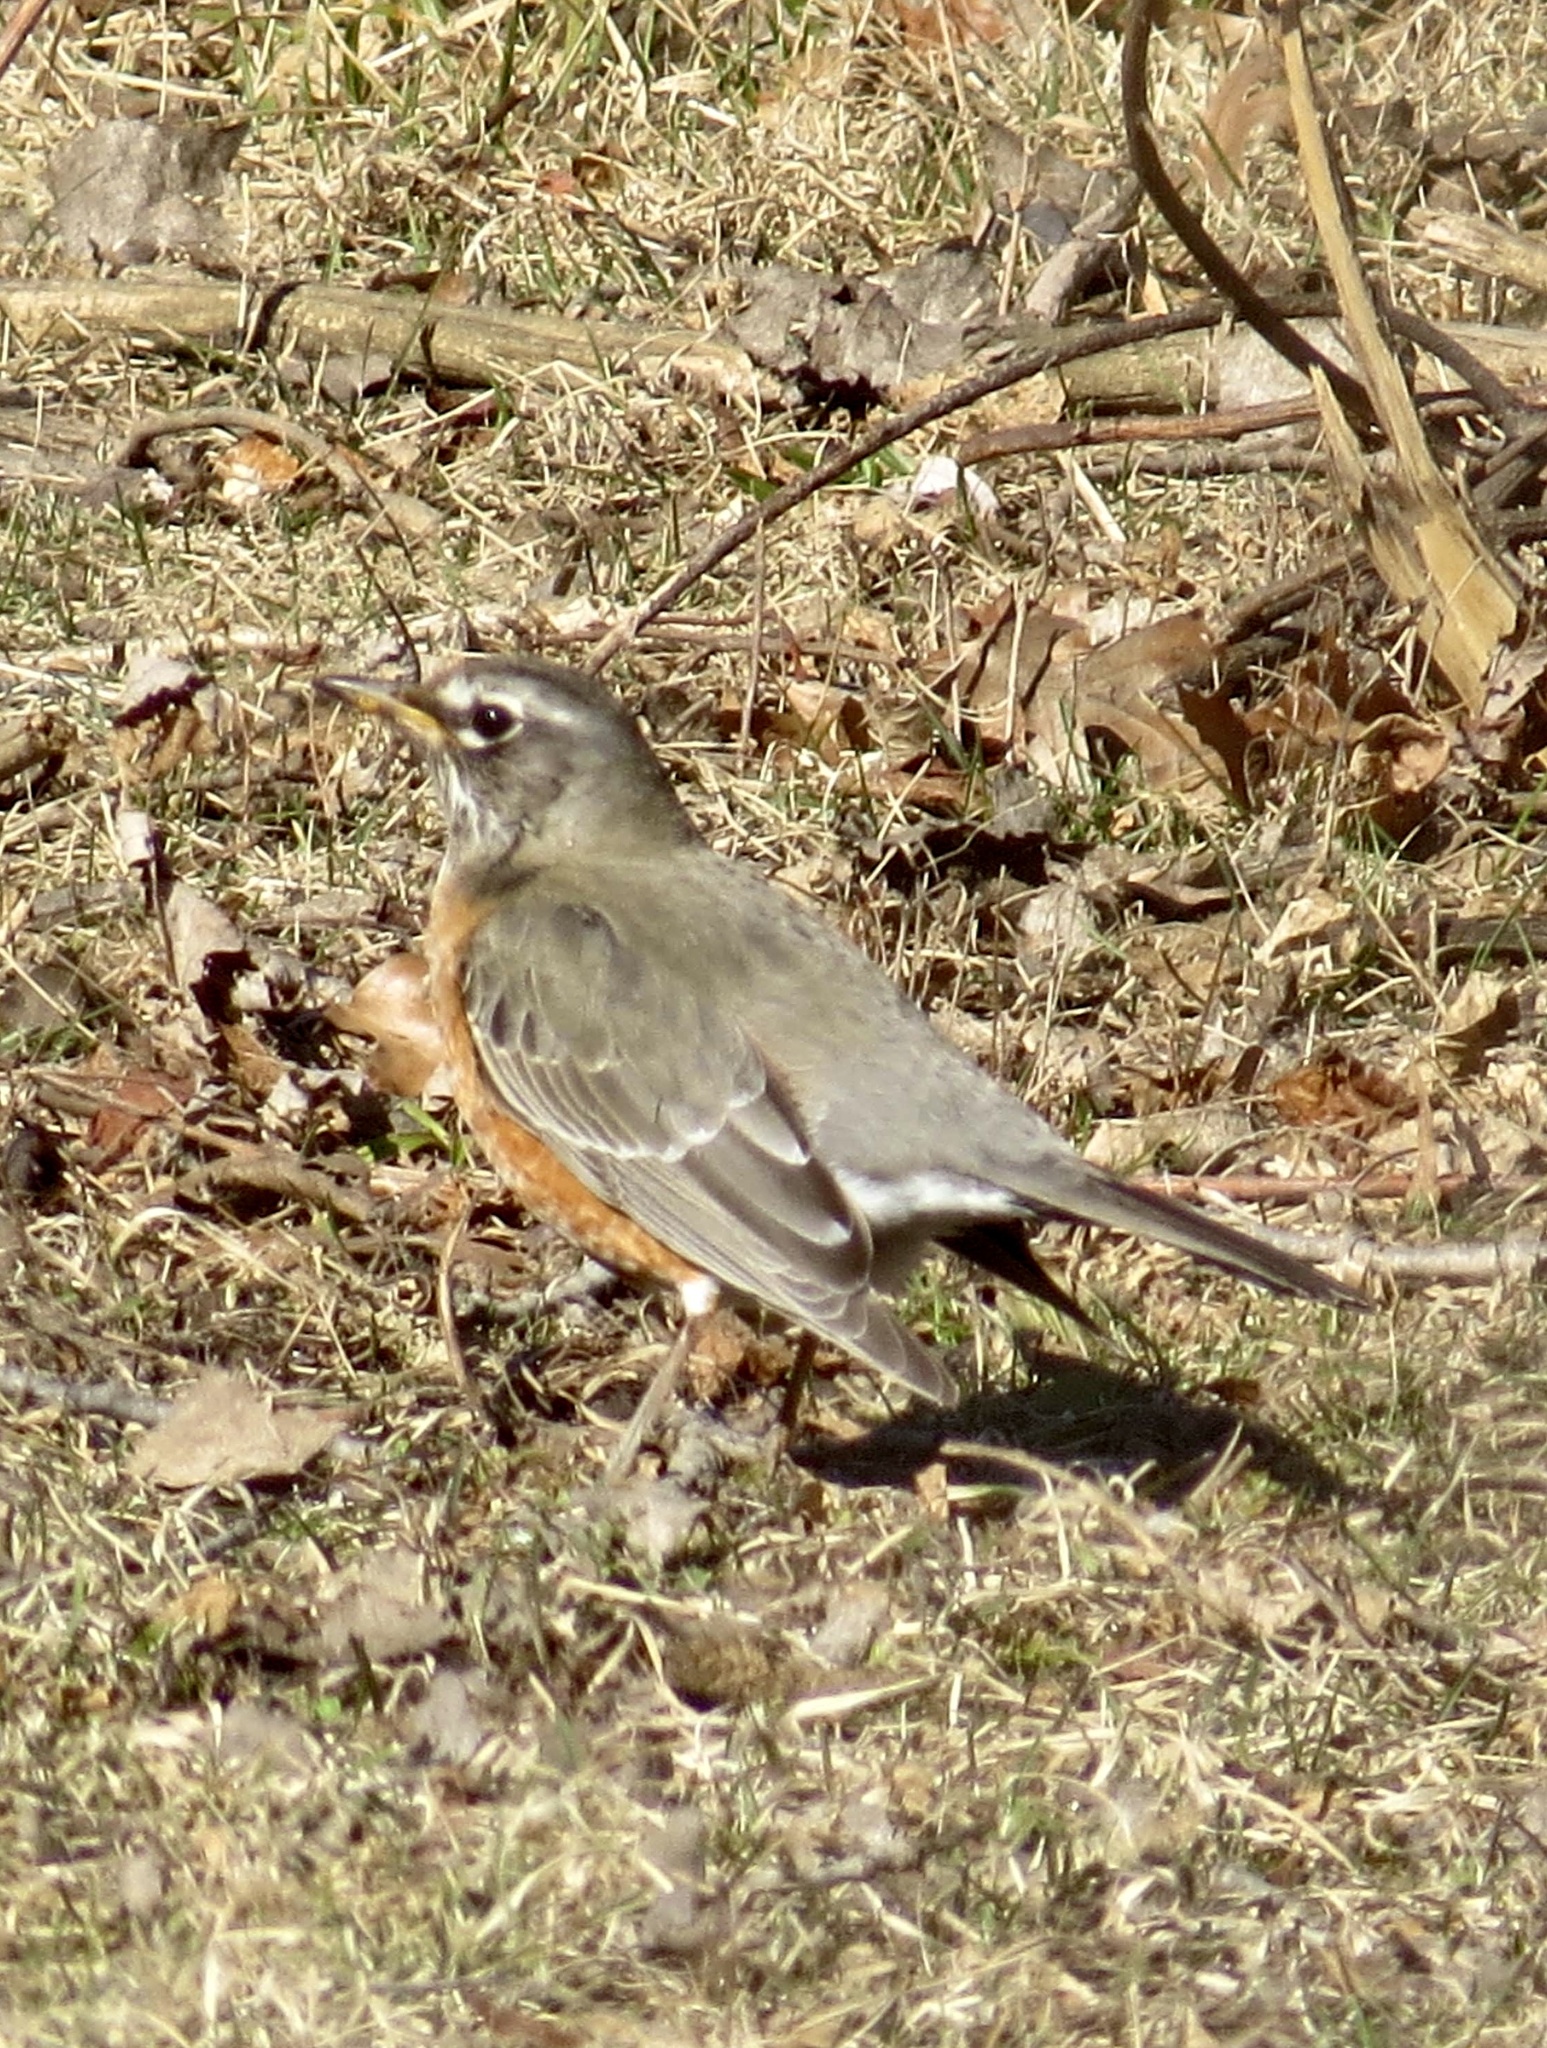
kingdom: Animalia
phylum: Chordata
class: Aves
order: Passeriformes
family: Turdidae
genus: Turdus
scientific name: Turdus migratorius
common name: American robin
